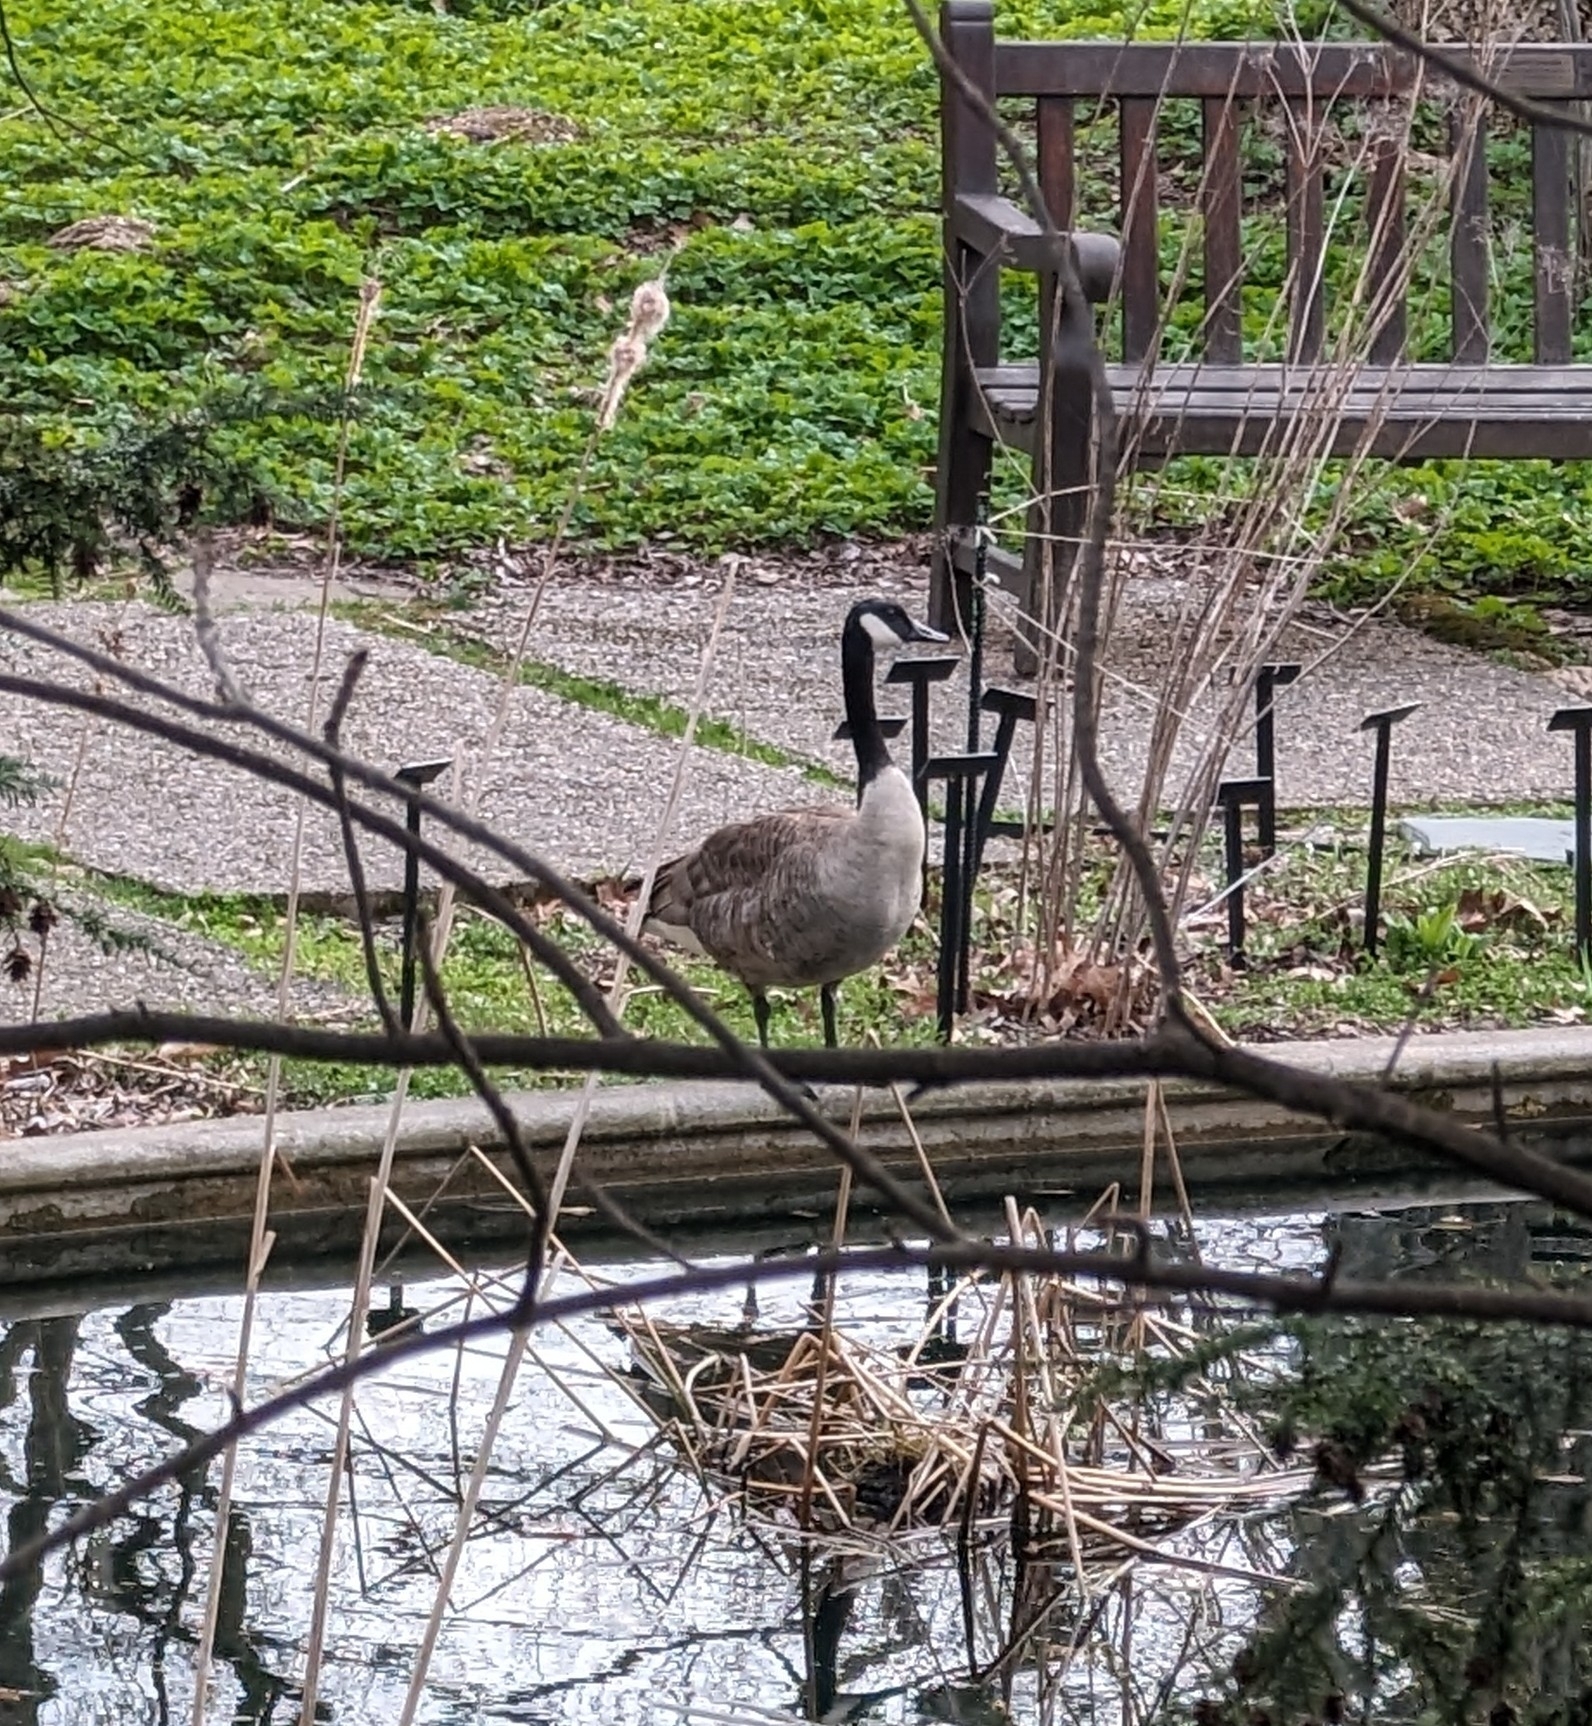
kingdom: Animalia
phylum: Chordata
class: Aves
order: Anseriformes
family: Anatidae
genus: Branta
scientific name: Branta canadensis
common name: Canada goose
